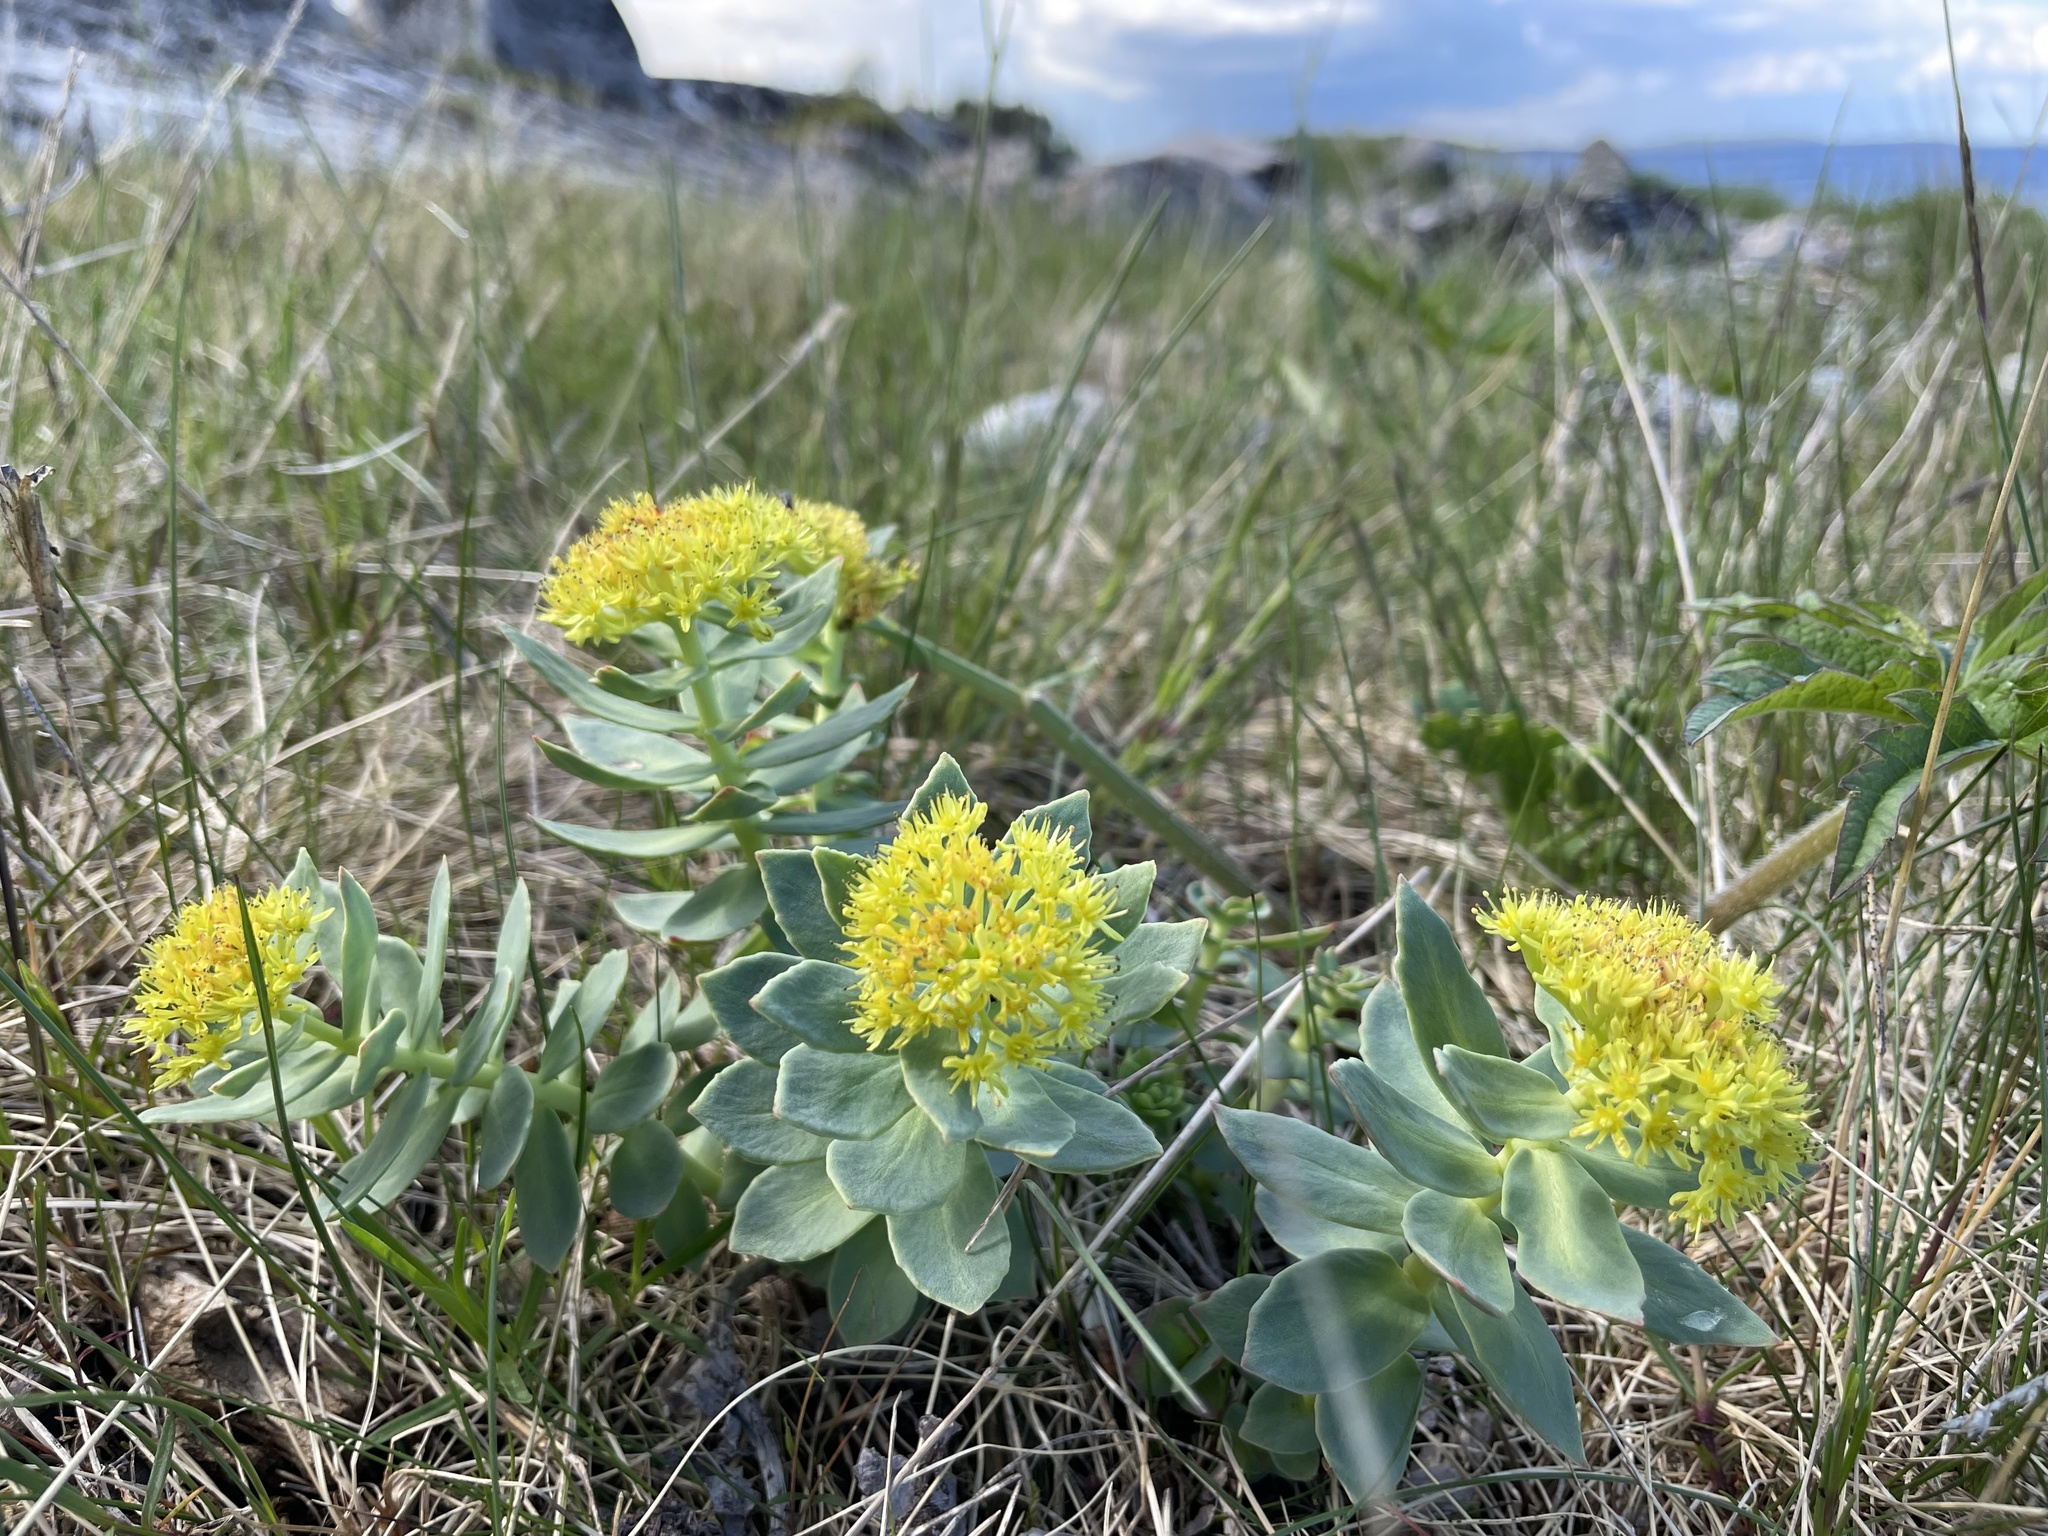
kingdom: Plantae
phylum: Tracheophyta
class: Magnoliopsida
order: Saxifragales
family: Crassulaceae
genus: Rhodiola
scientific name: Rhodiola rosea
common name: Roseroot
